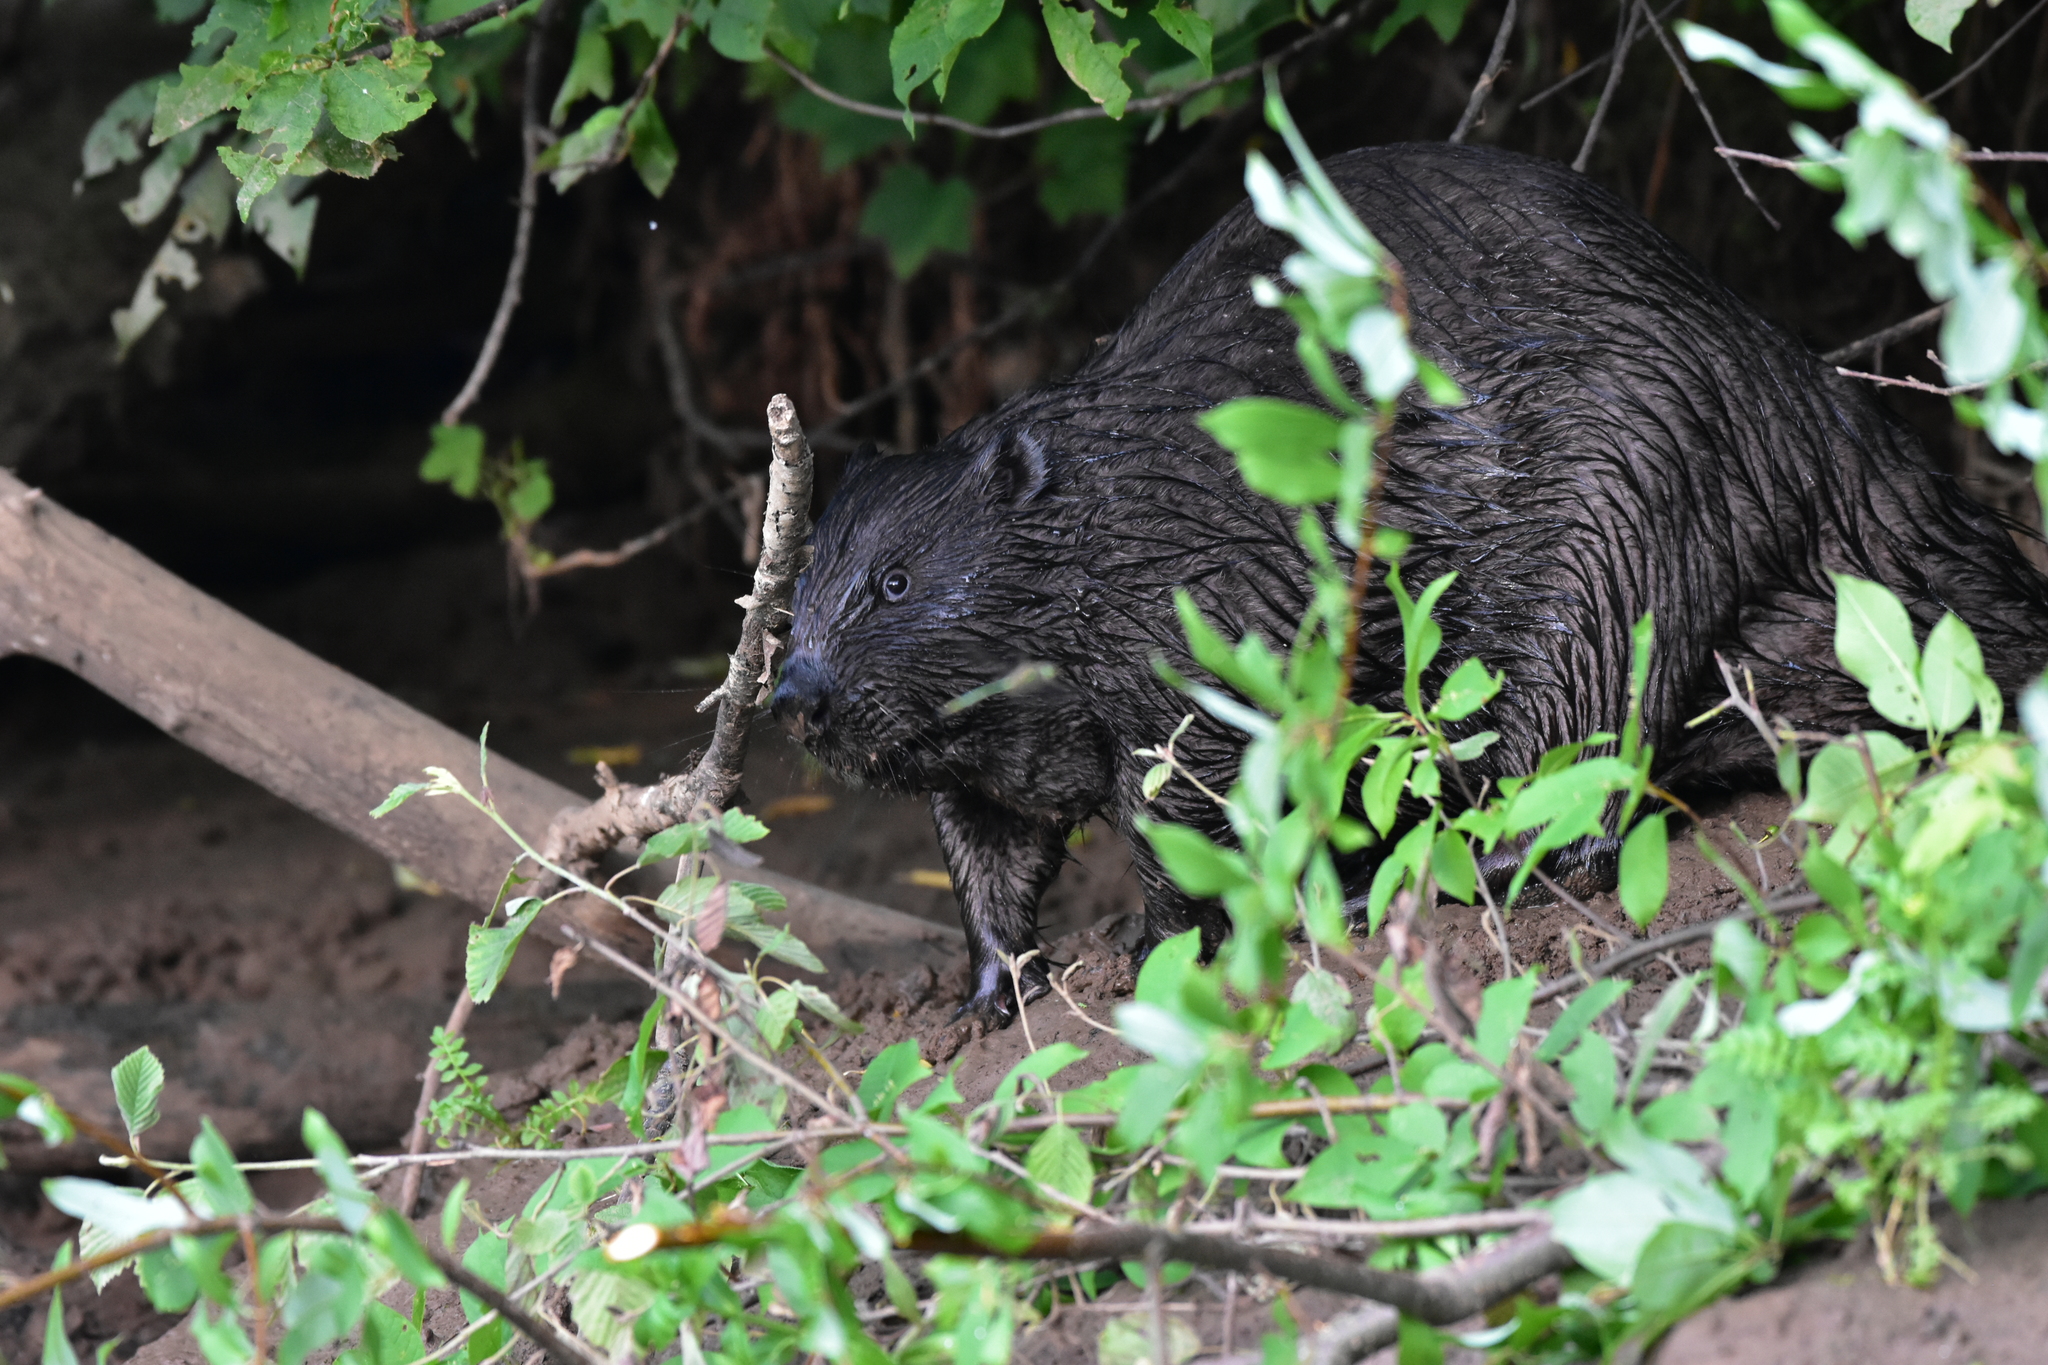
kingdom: Animalia
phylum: Chordata
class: Mammalia
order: Rodentia
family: Castoridae
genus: Castor
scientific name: Castor fiber
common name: Eurasian beaver
